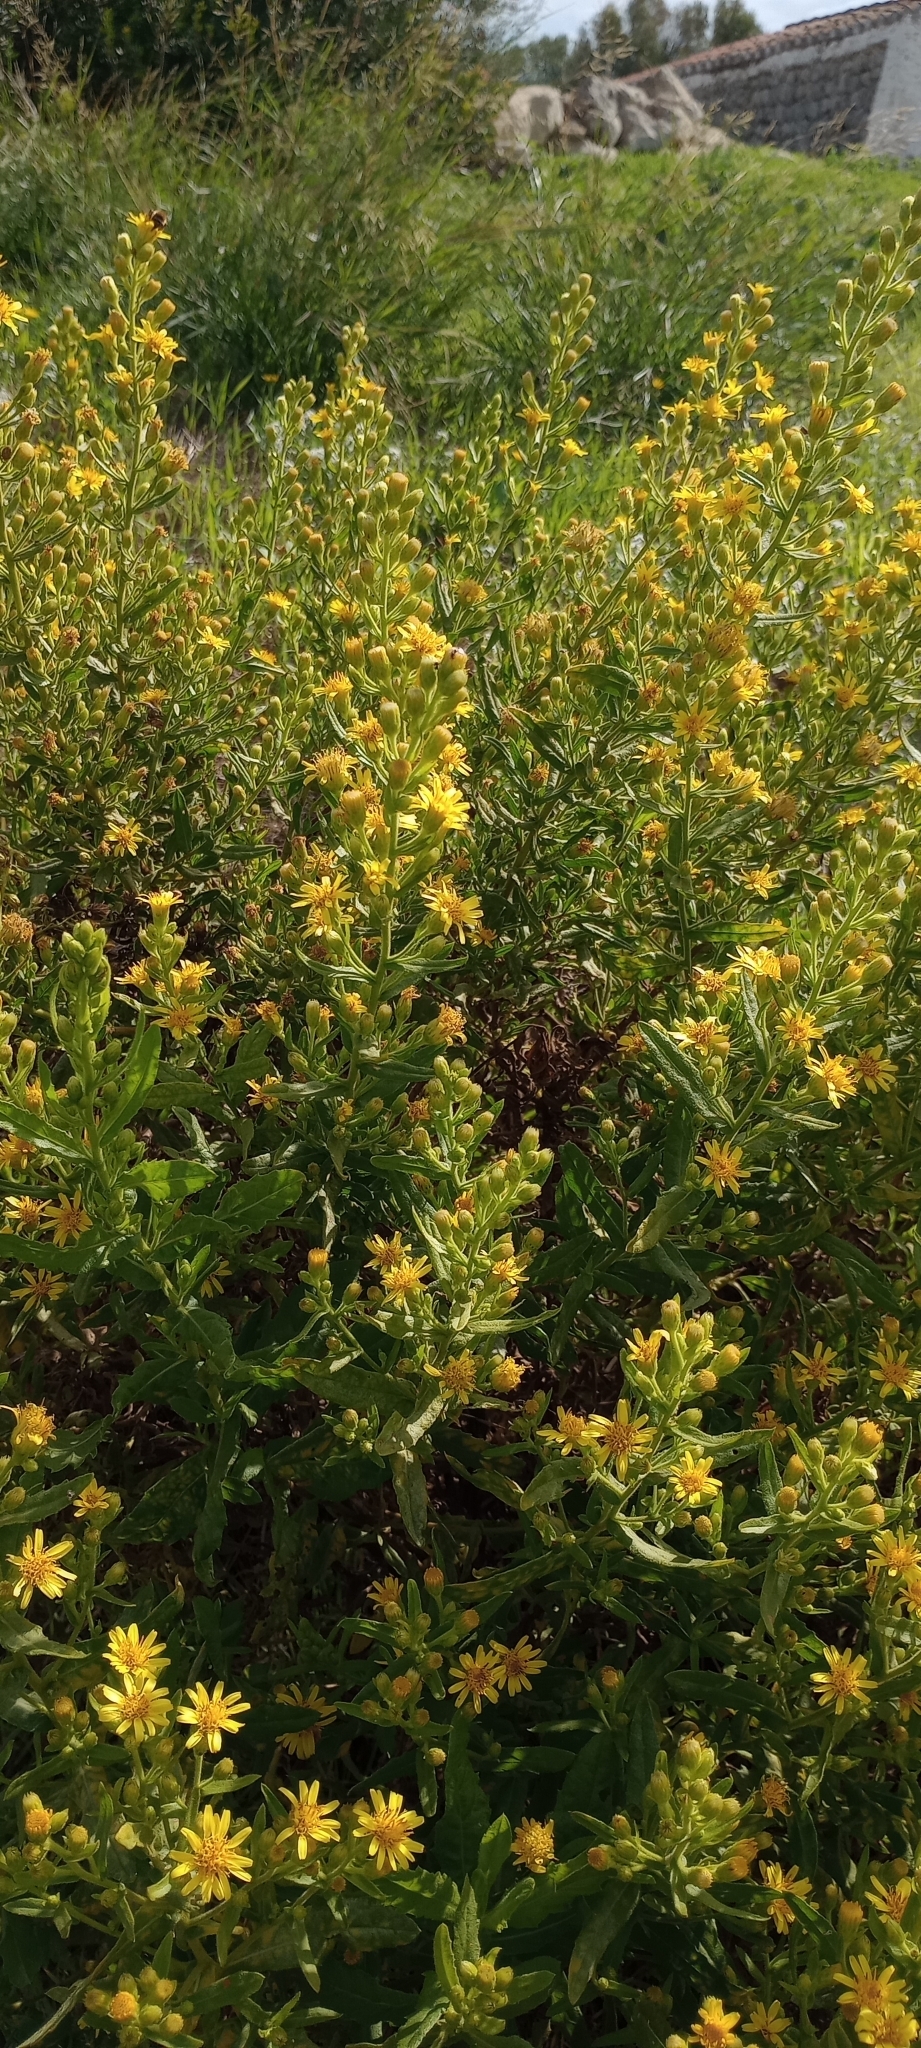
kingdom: Plantae
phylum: Tracheophyta
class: Magnoliopsida
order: Asterales
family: Asteraceae
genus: Dittrichia
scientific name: Dittrichia viscosa
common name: Woody fleabane
